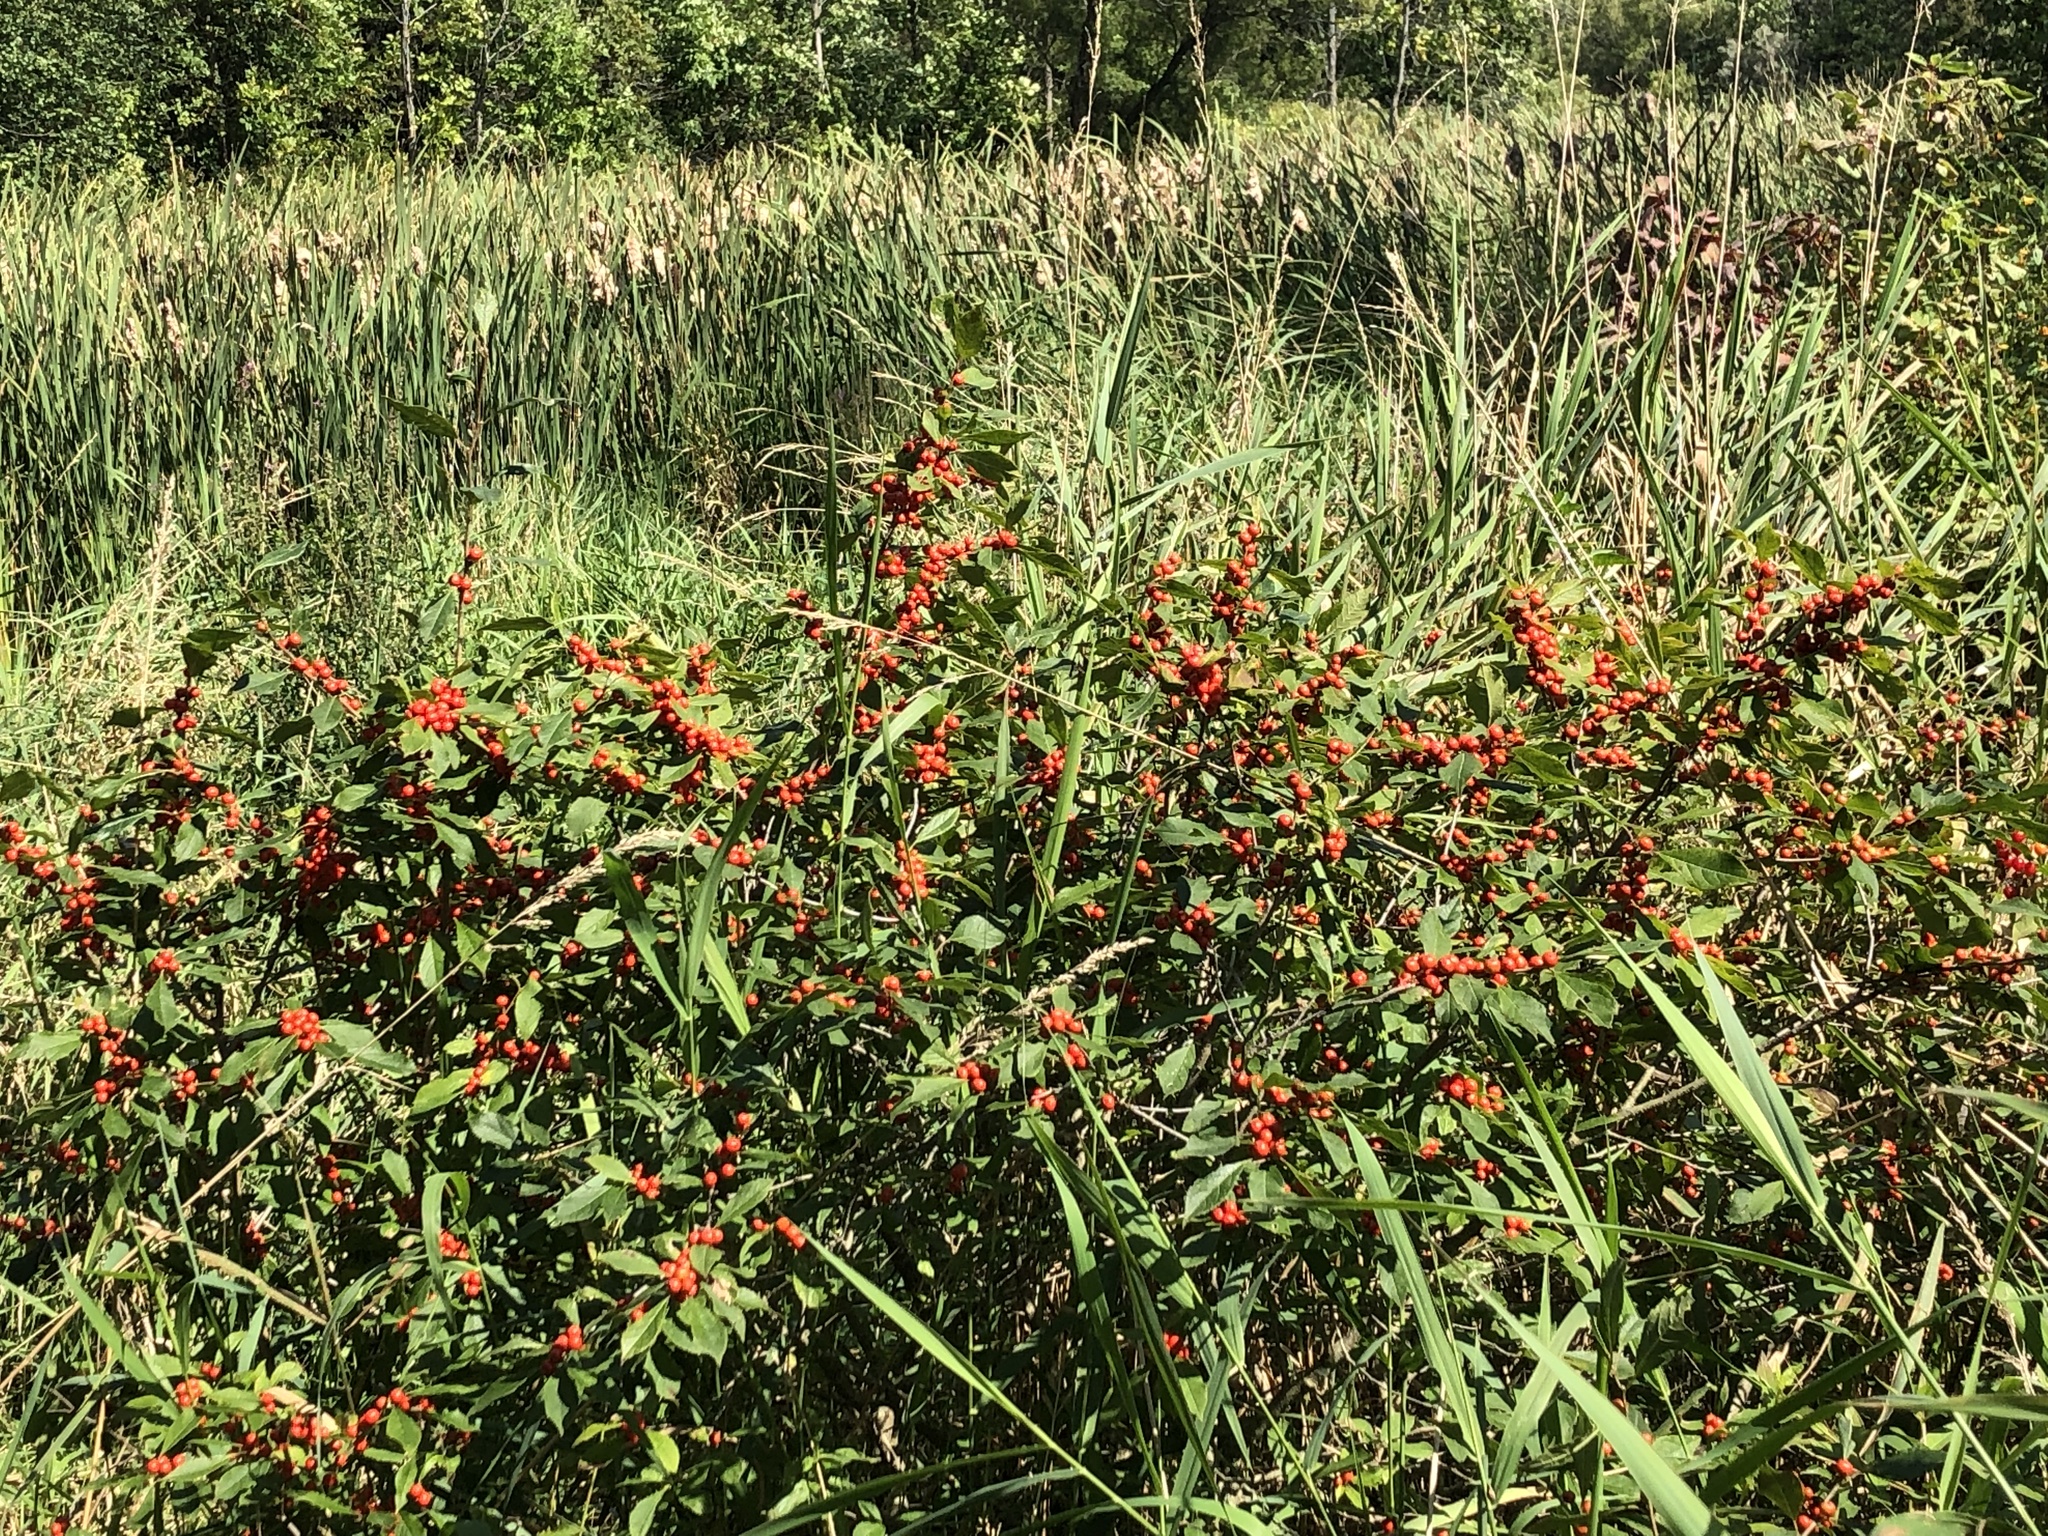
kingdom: Plantae
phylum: Tracheophyta
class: Magnoliopsida
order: Aquifoliales
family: Aquifoliaceae
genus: Ilex
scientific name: Ilex verticillata
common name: Virginia winterberry
